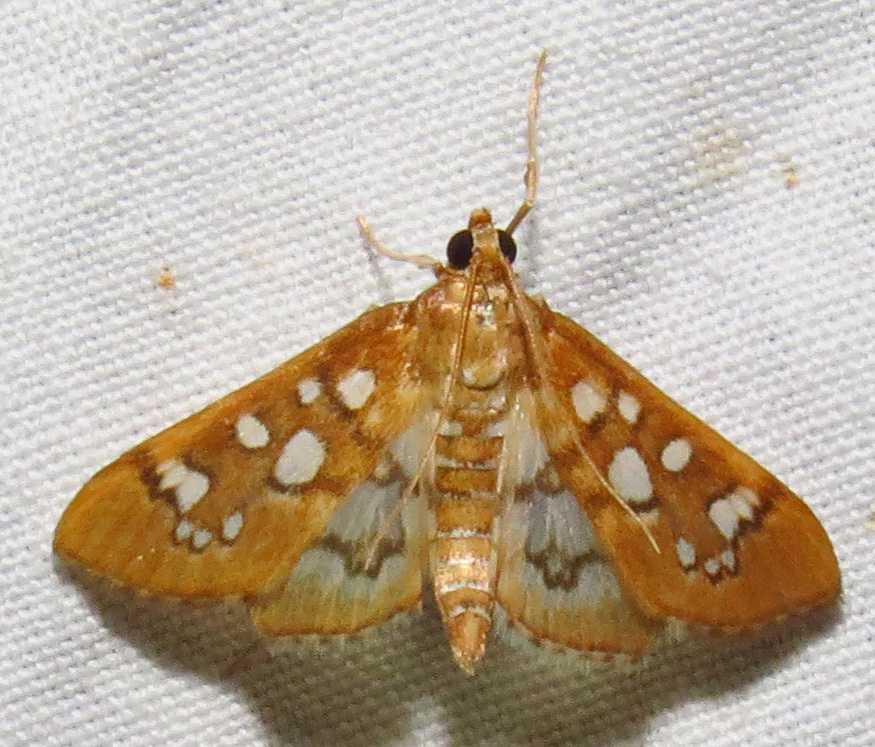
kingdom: Animalia
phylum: Arthropoda
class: Insecta
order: Lepidoptera
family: Crambidae
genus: Samea
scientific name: Samea baccatalis
